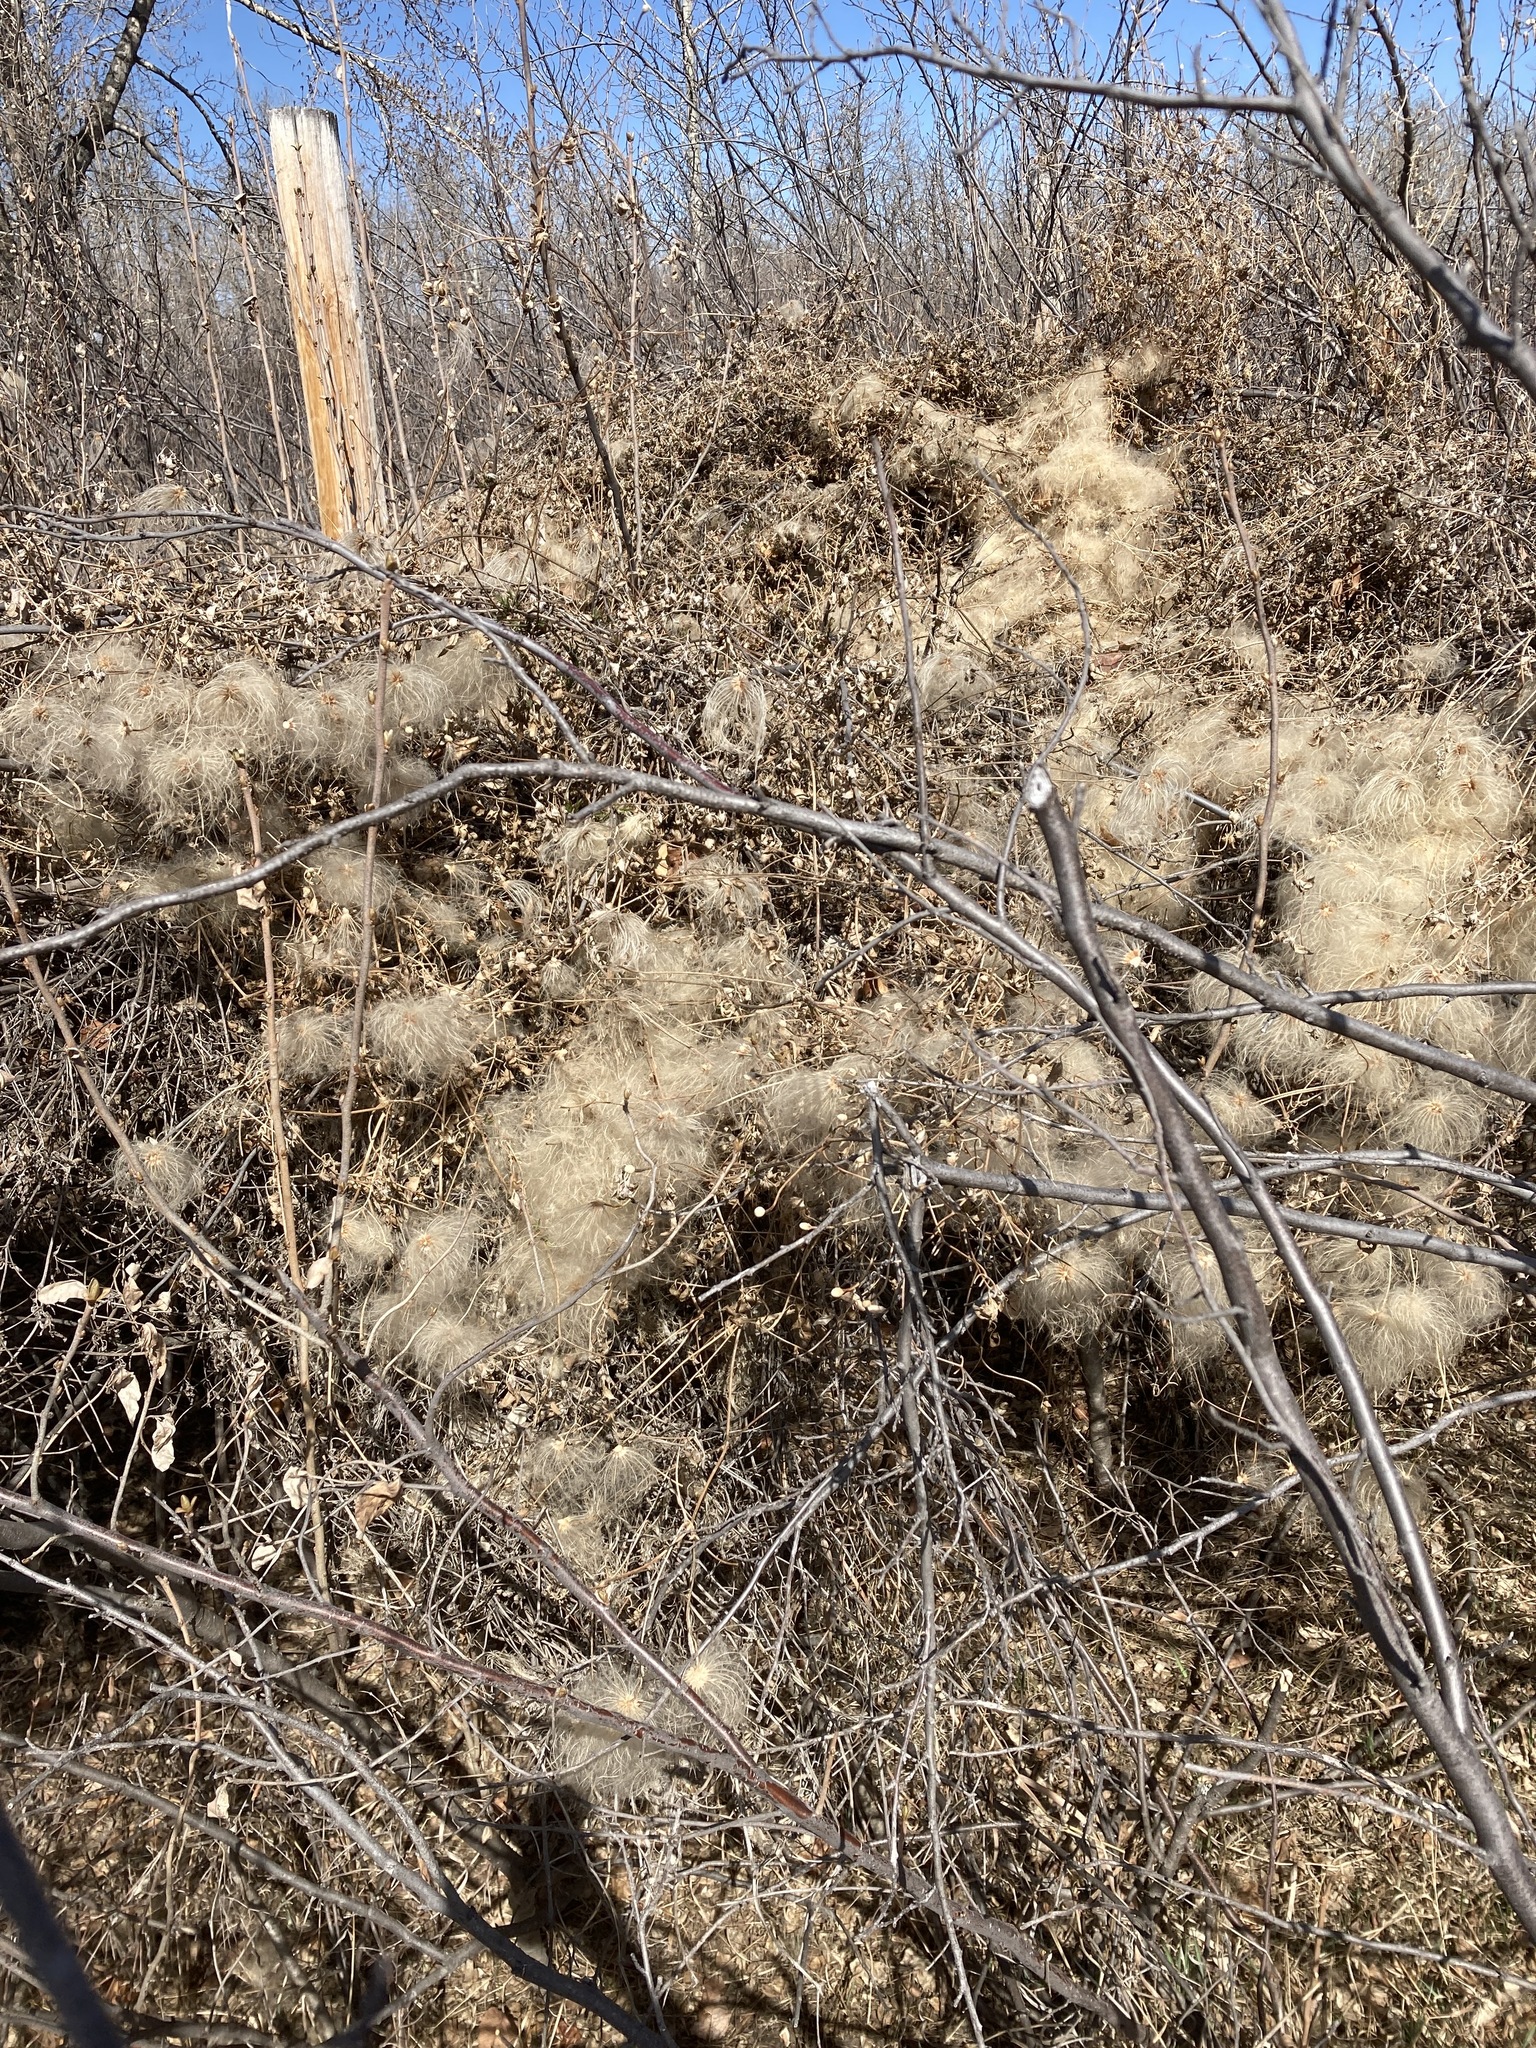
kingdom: Plantae
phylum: Tracheophyta
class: Magnoliopsida
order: Ranunculales
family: Ranunculaceae
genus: Clematis
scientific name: Clematis tangutica
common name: Orange-peel clematis
